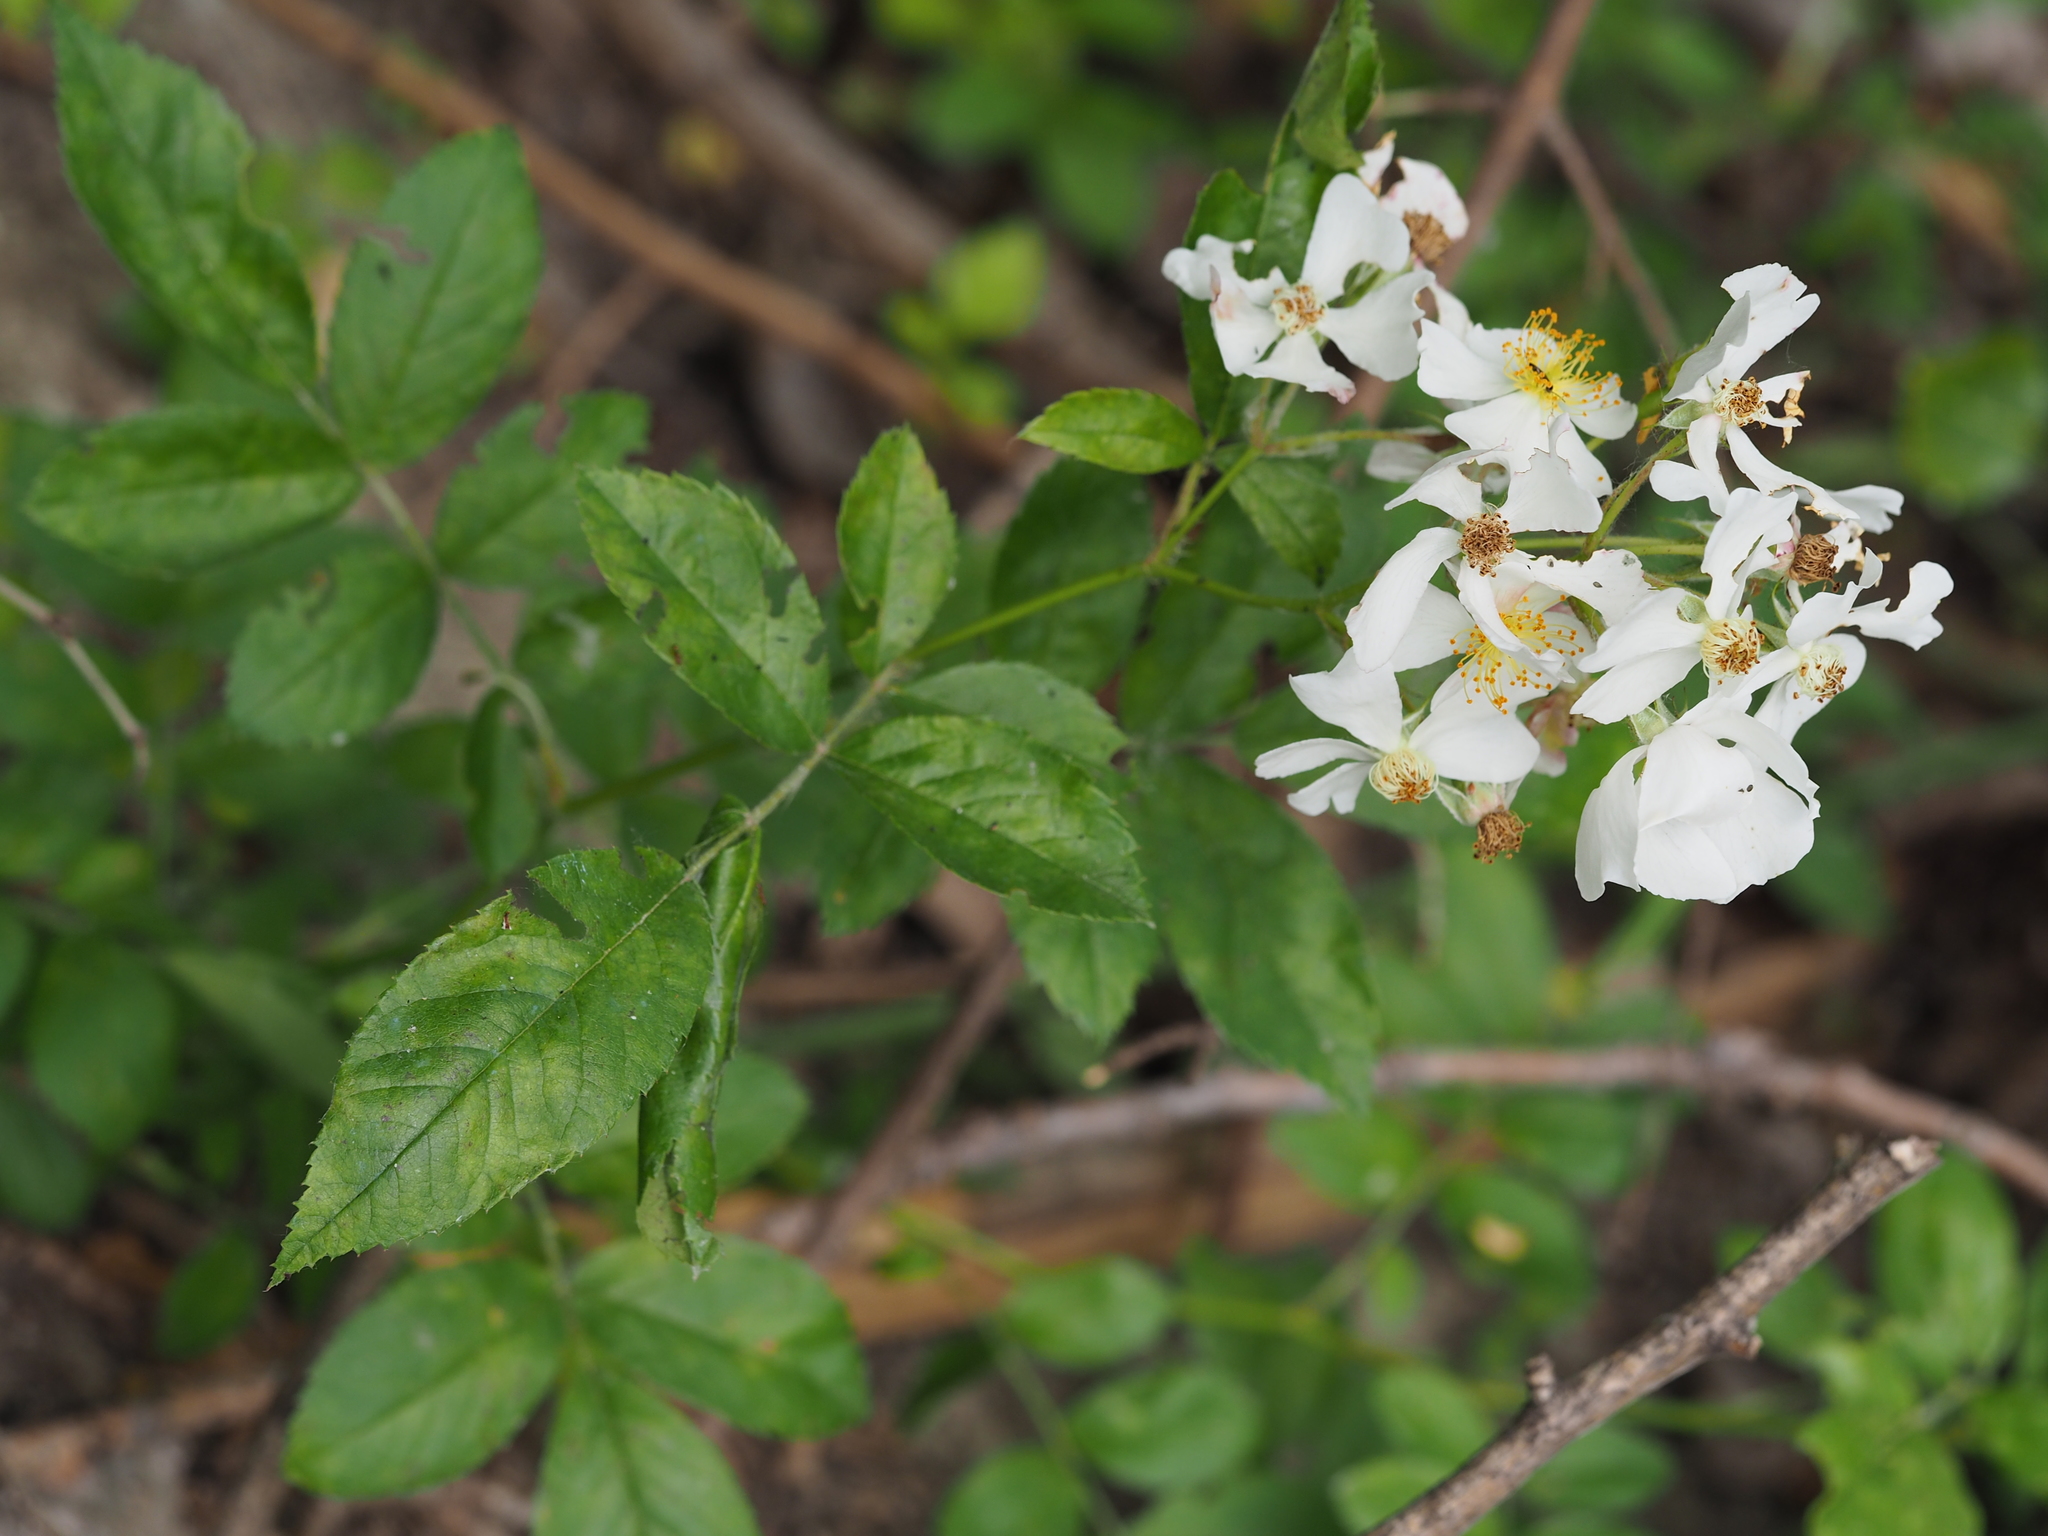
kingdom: Plantae
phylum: Tracheophyta
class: Magnoliopsida
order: Rosales
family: Rosaceae
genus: Rosa
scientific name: Rosa multiflora
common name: Multiflora rose
